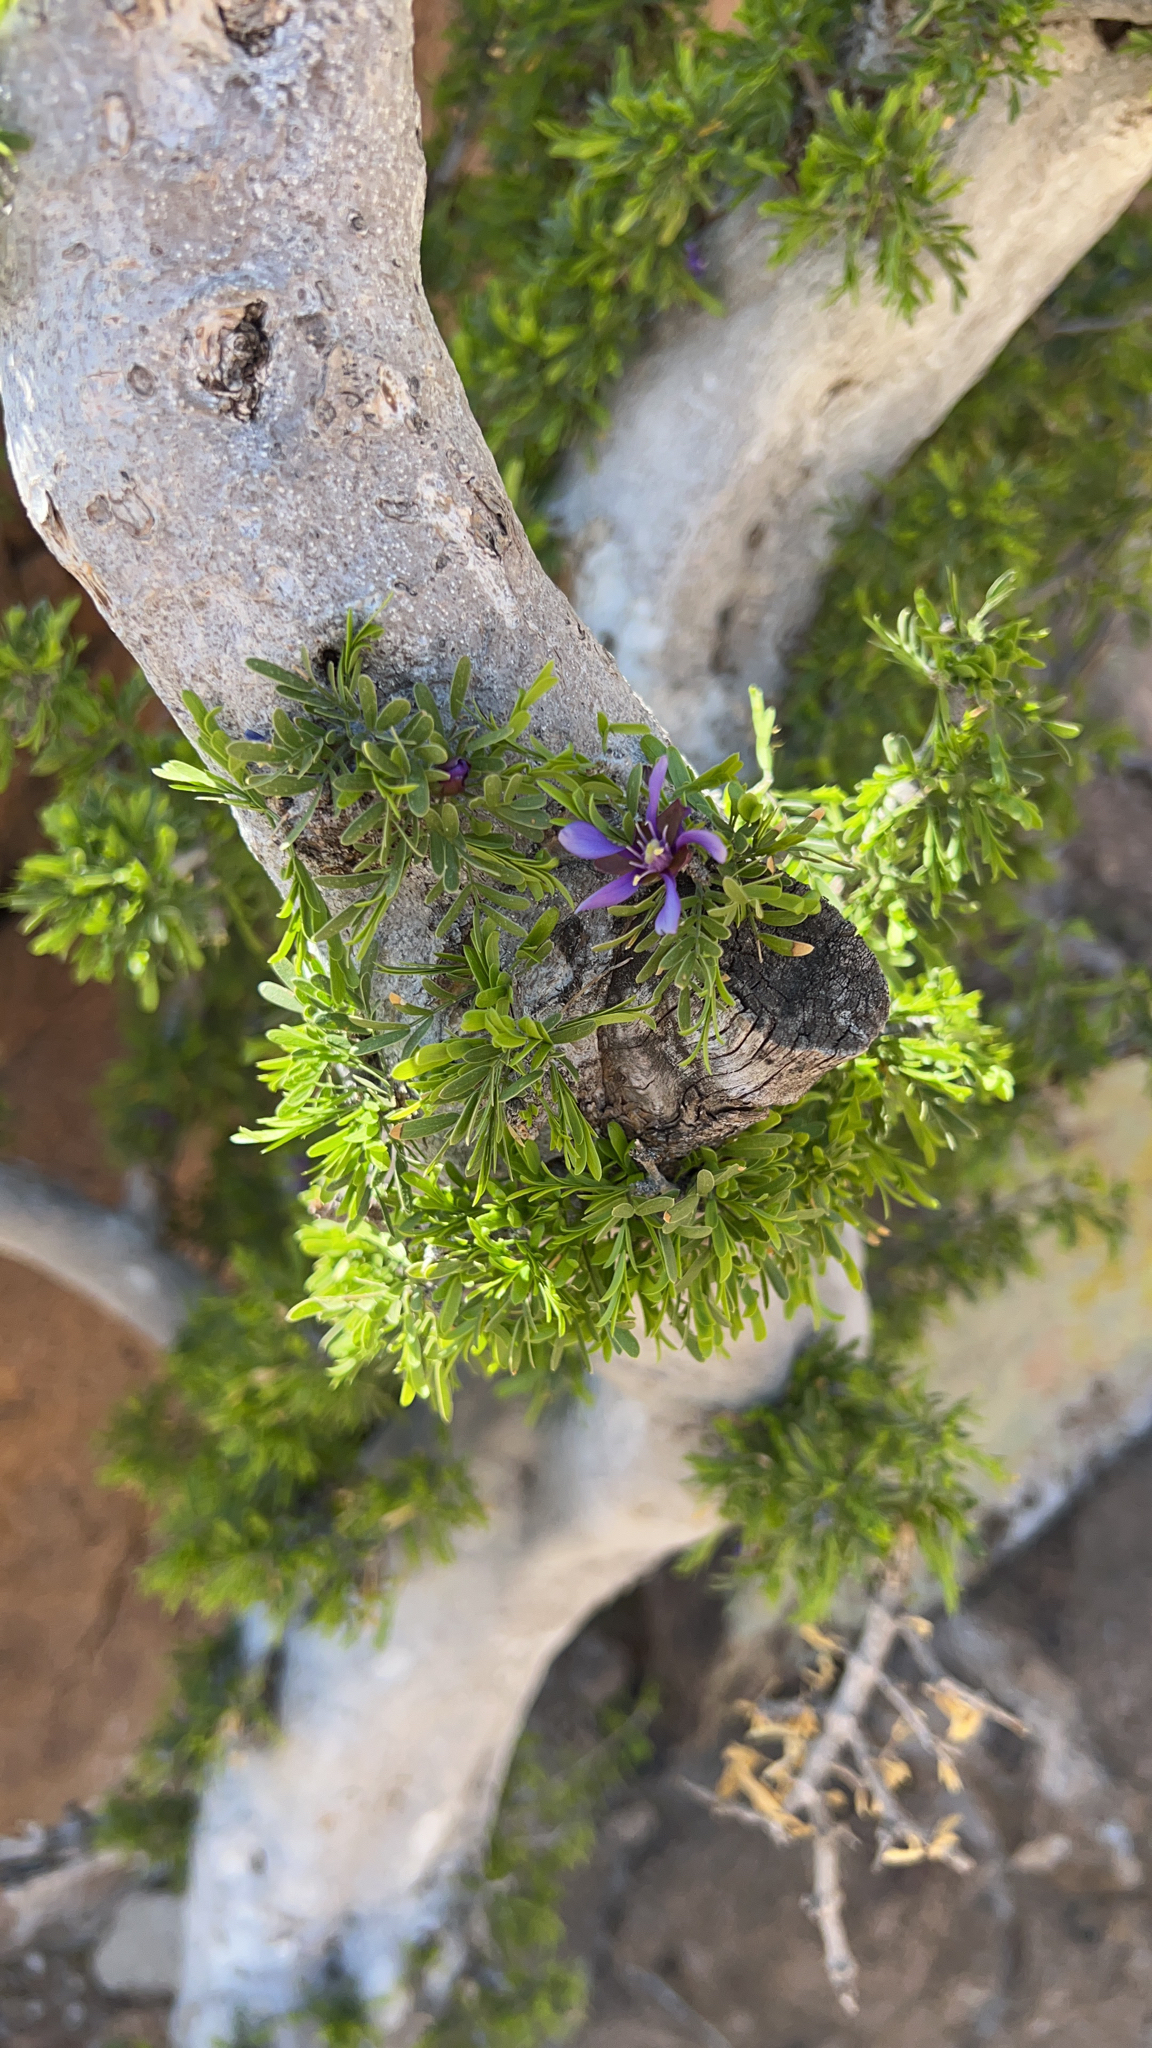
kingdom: Plantae
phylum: Tracheophyta
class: Magnoliopsida
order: Zygophyllales
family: Zygophyllaceae
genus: Porlieria
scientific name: Porlieria angustifolia
